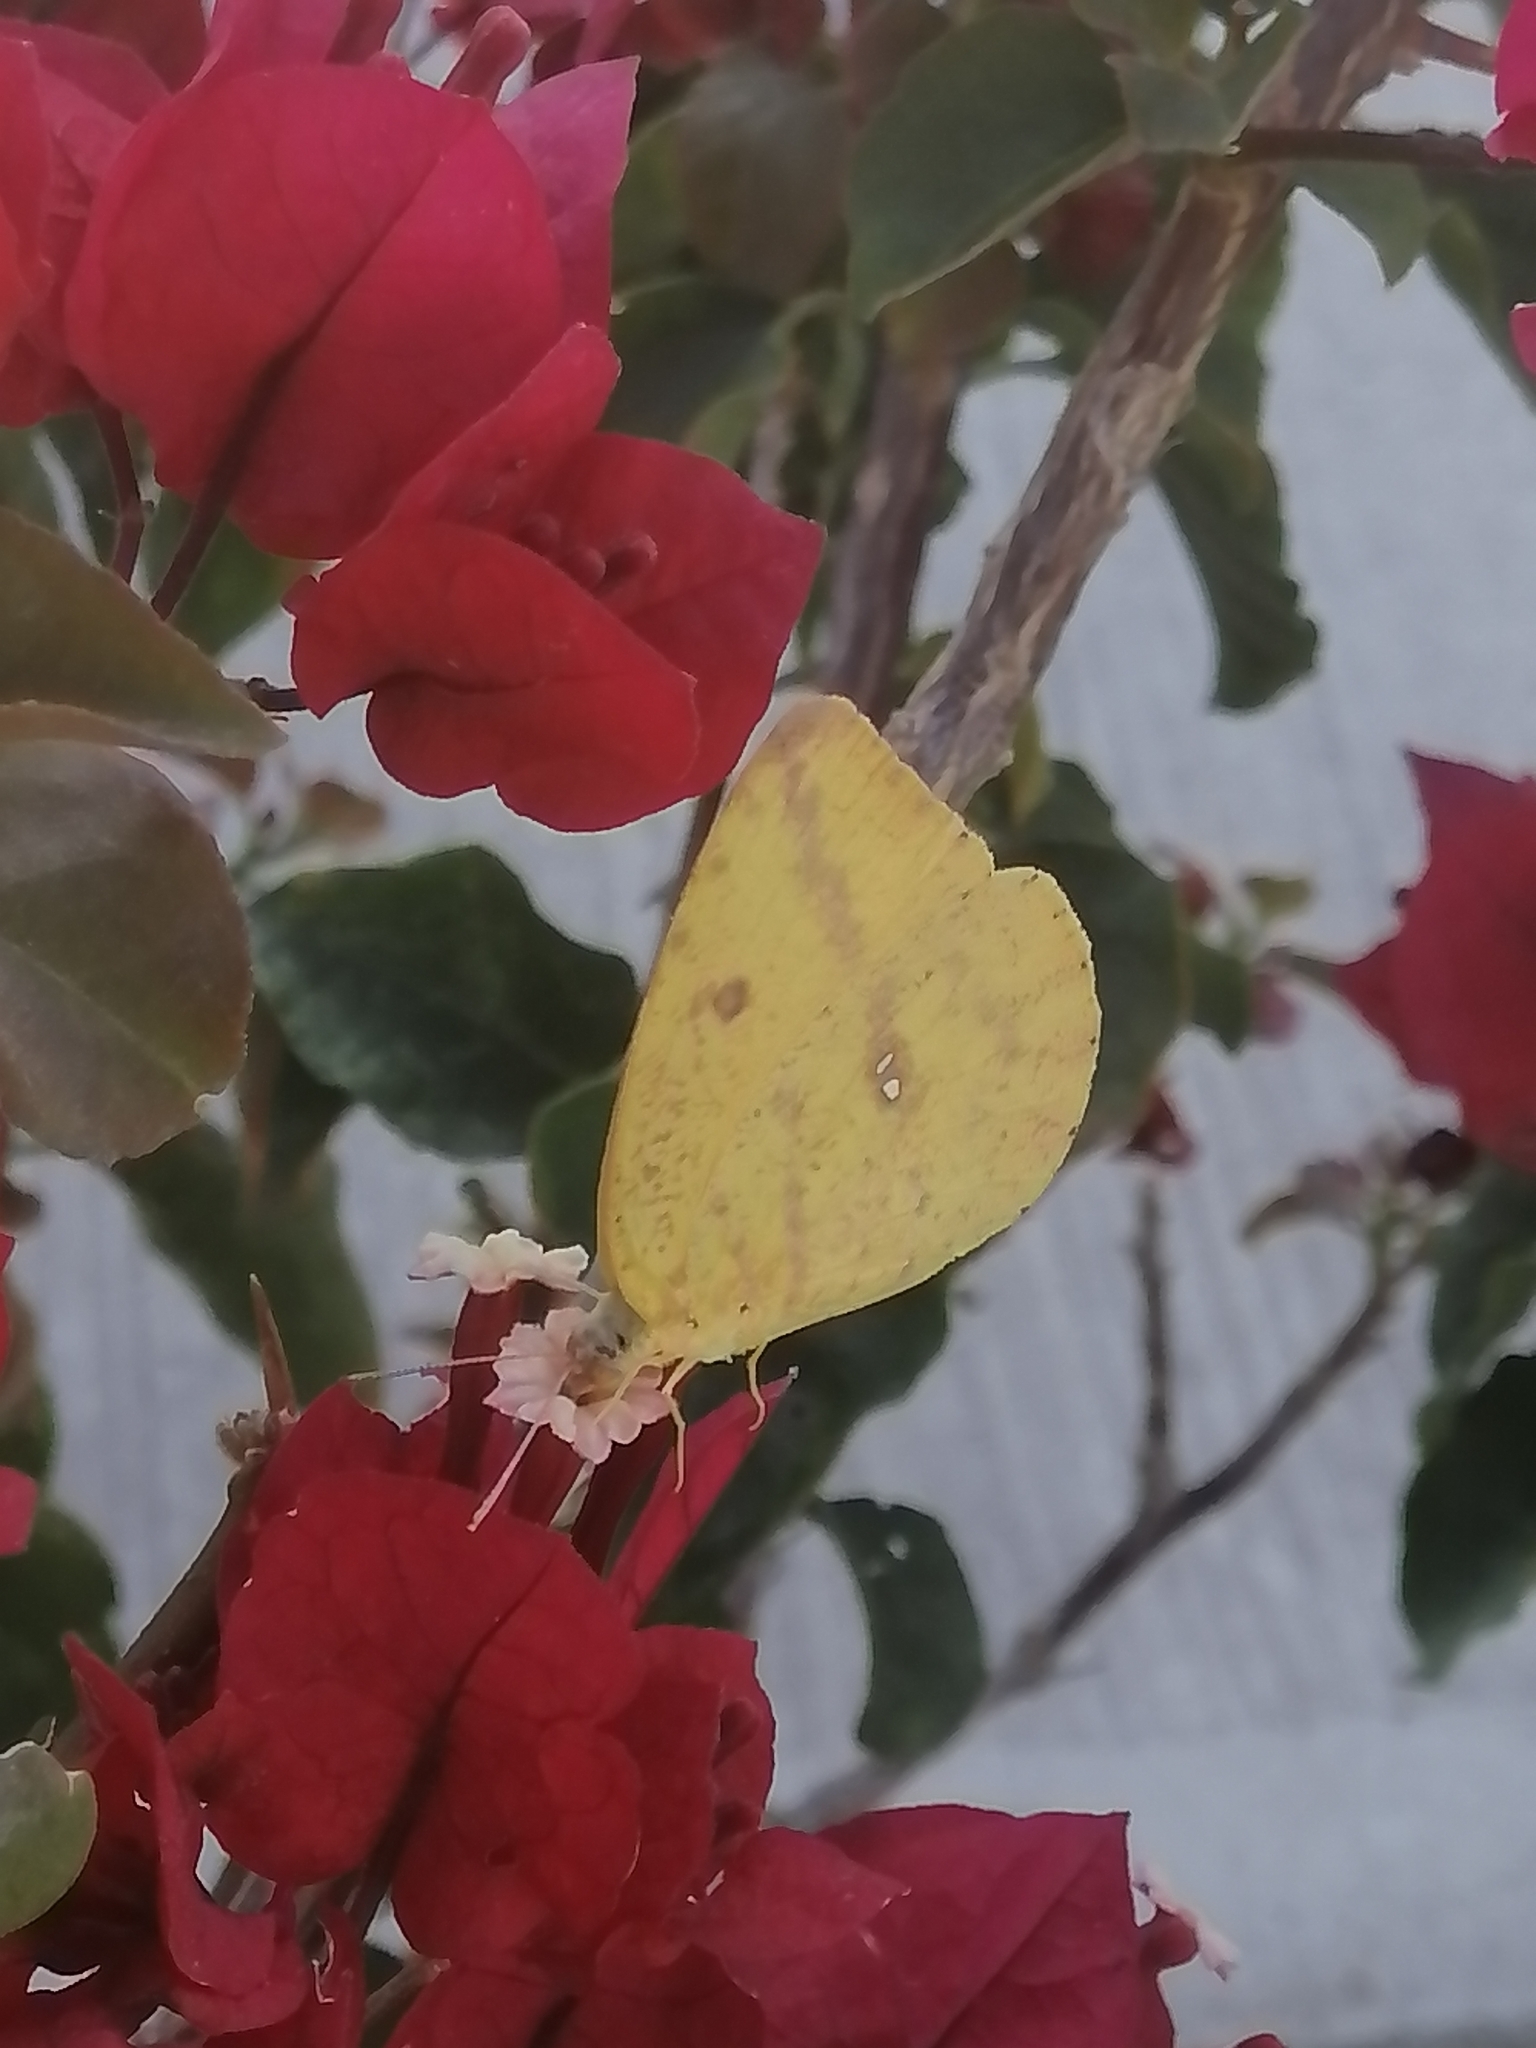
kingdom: Animalia
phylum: Arthropoda
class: Insecta
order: Lepidoptera
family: Pieridae
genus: Phoebis
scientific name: Phoebis agarithe
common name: Large orange sulphur
